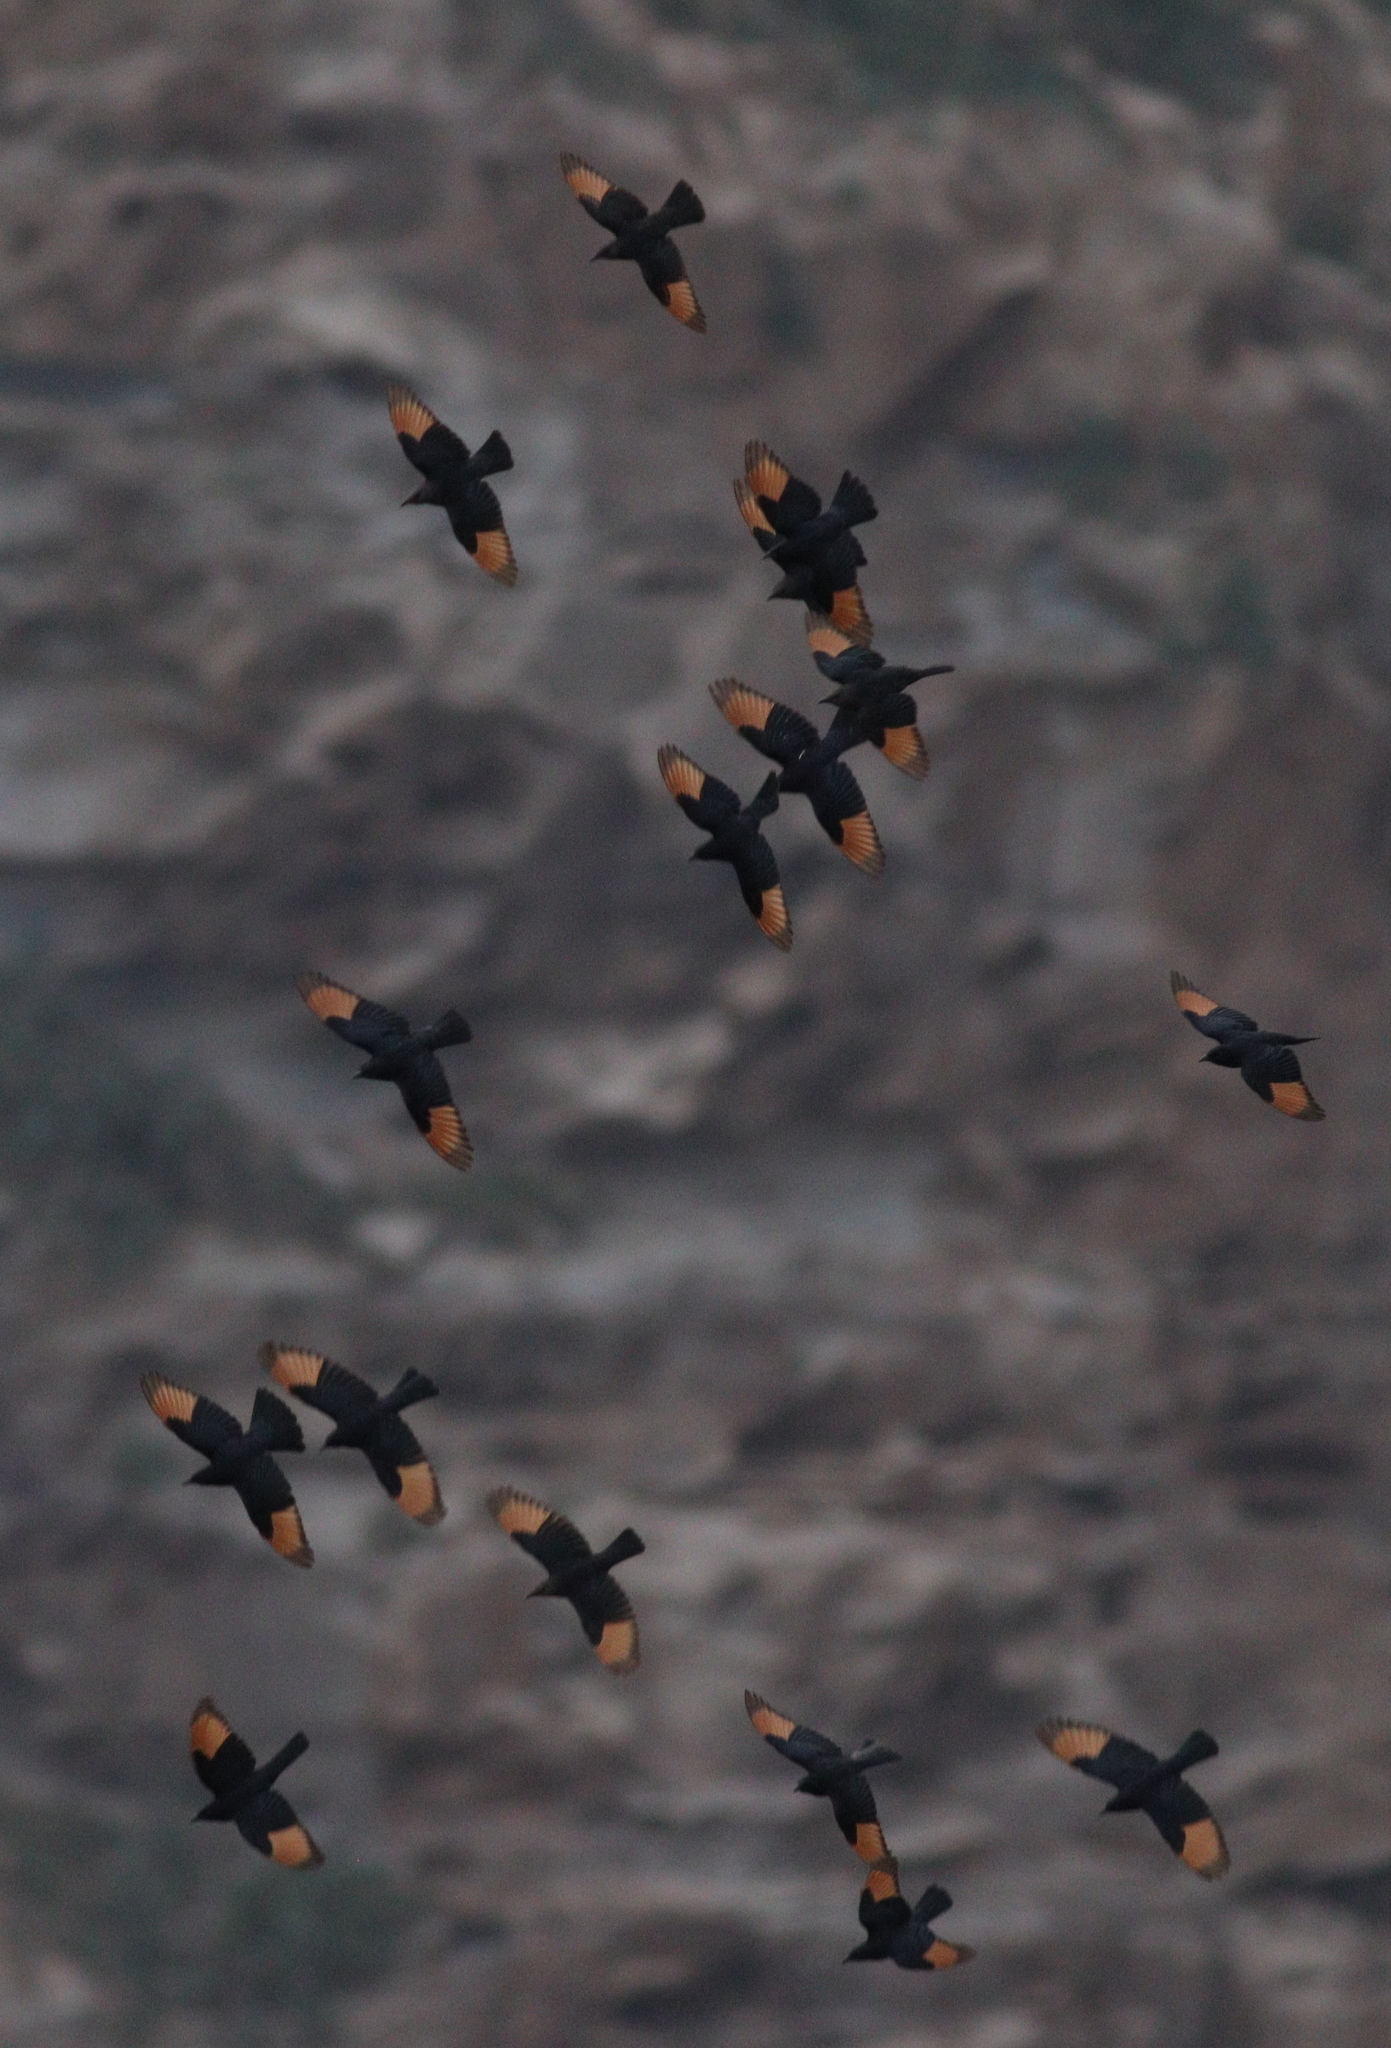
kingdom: Animalia
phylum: Chordata
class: Aves
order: Passeriformes
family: Sturnidae
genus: Onychognathus
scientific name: Onychognathus tristramii
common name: Tristram's starling
